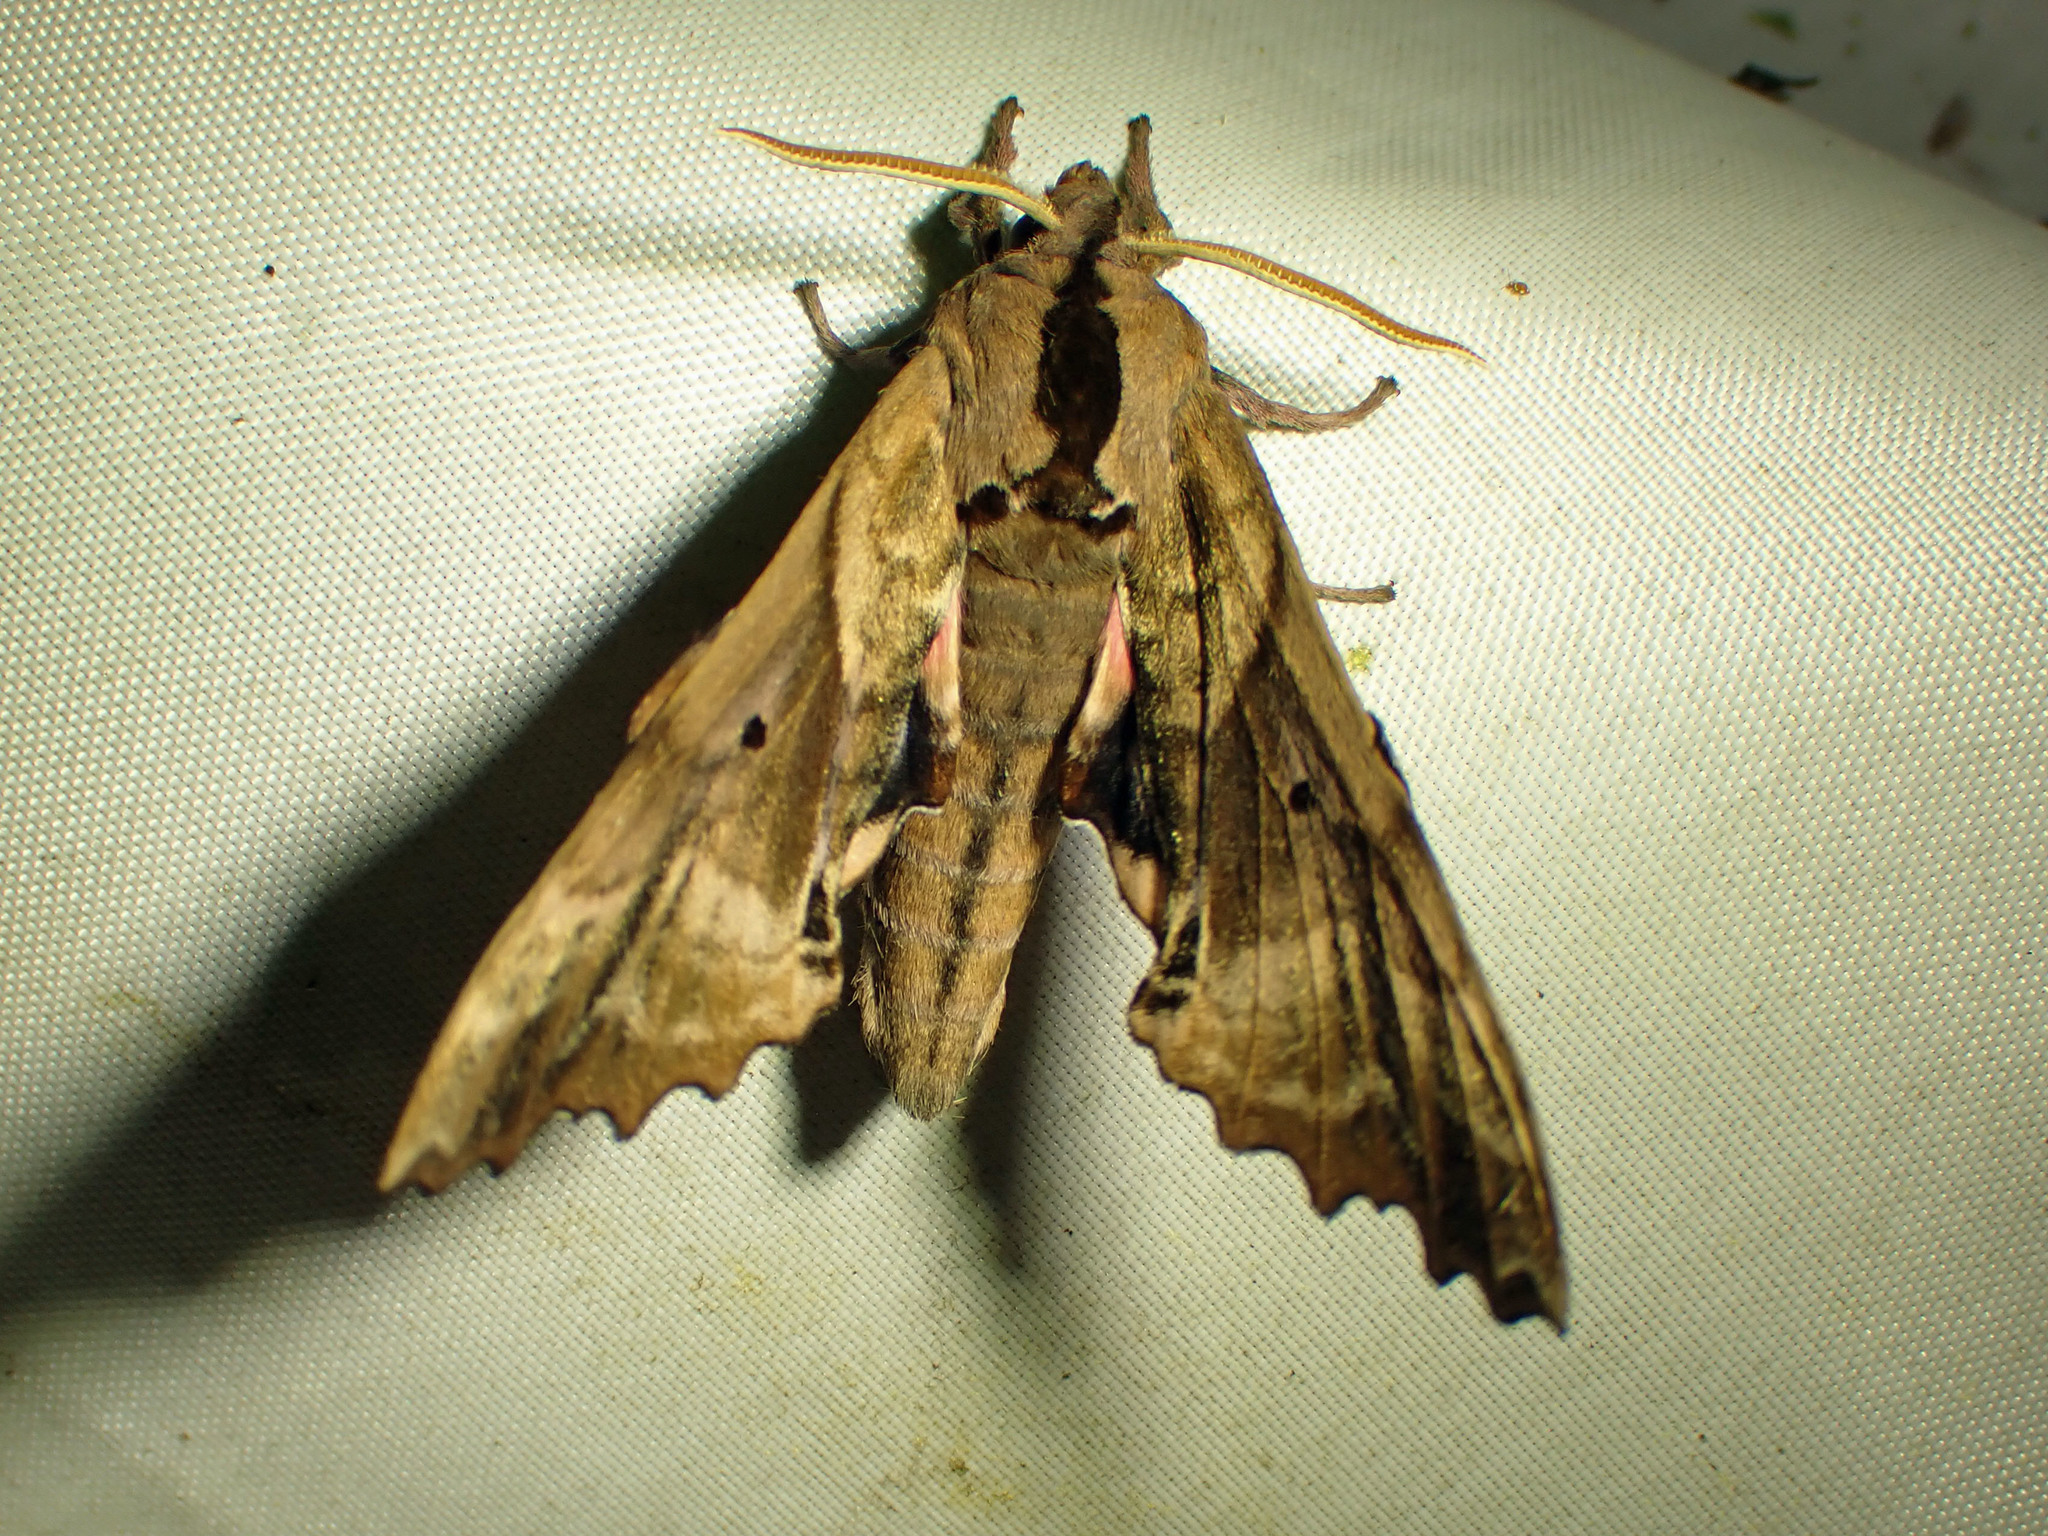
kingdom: Animalia
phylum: Arthropoda
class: Insecta
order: Lepidoptera
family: Sphingidae
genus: Paonias
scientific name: Paonias excaecata
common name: Blind-eyed sphinx
